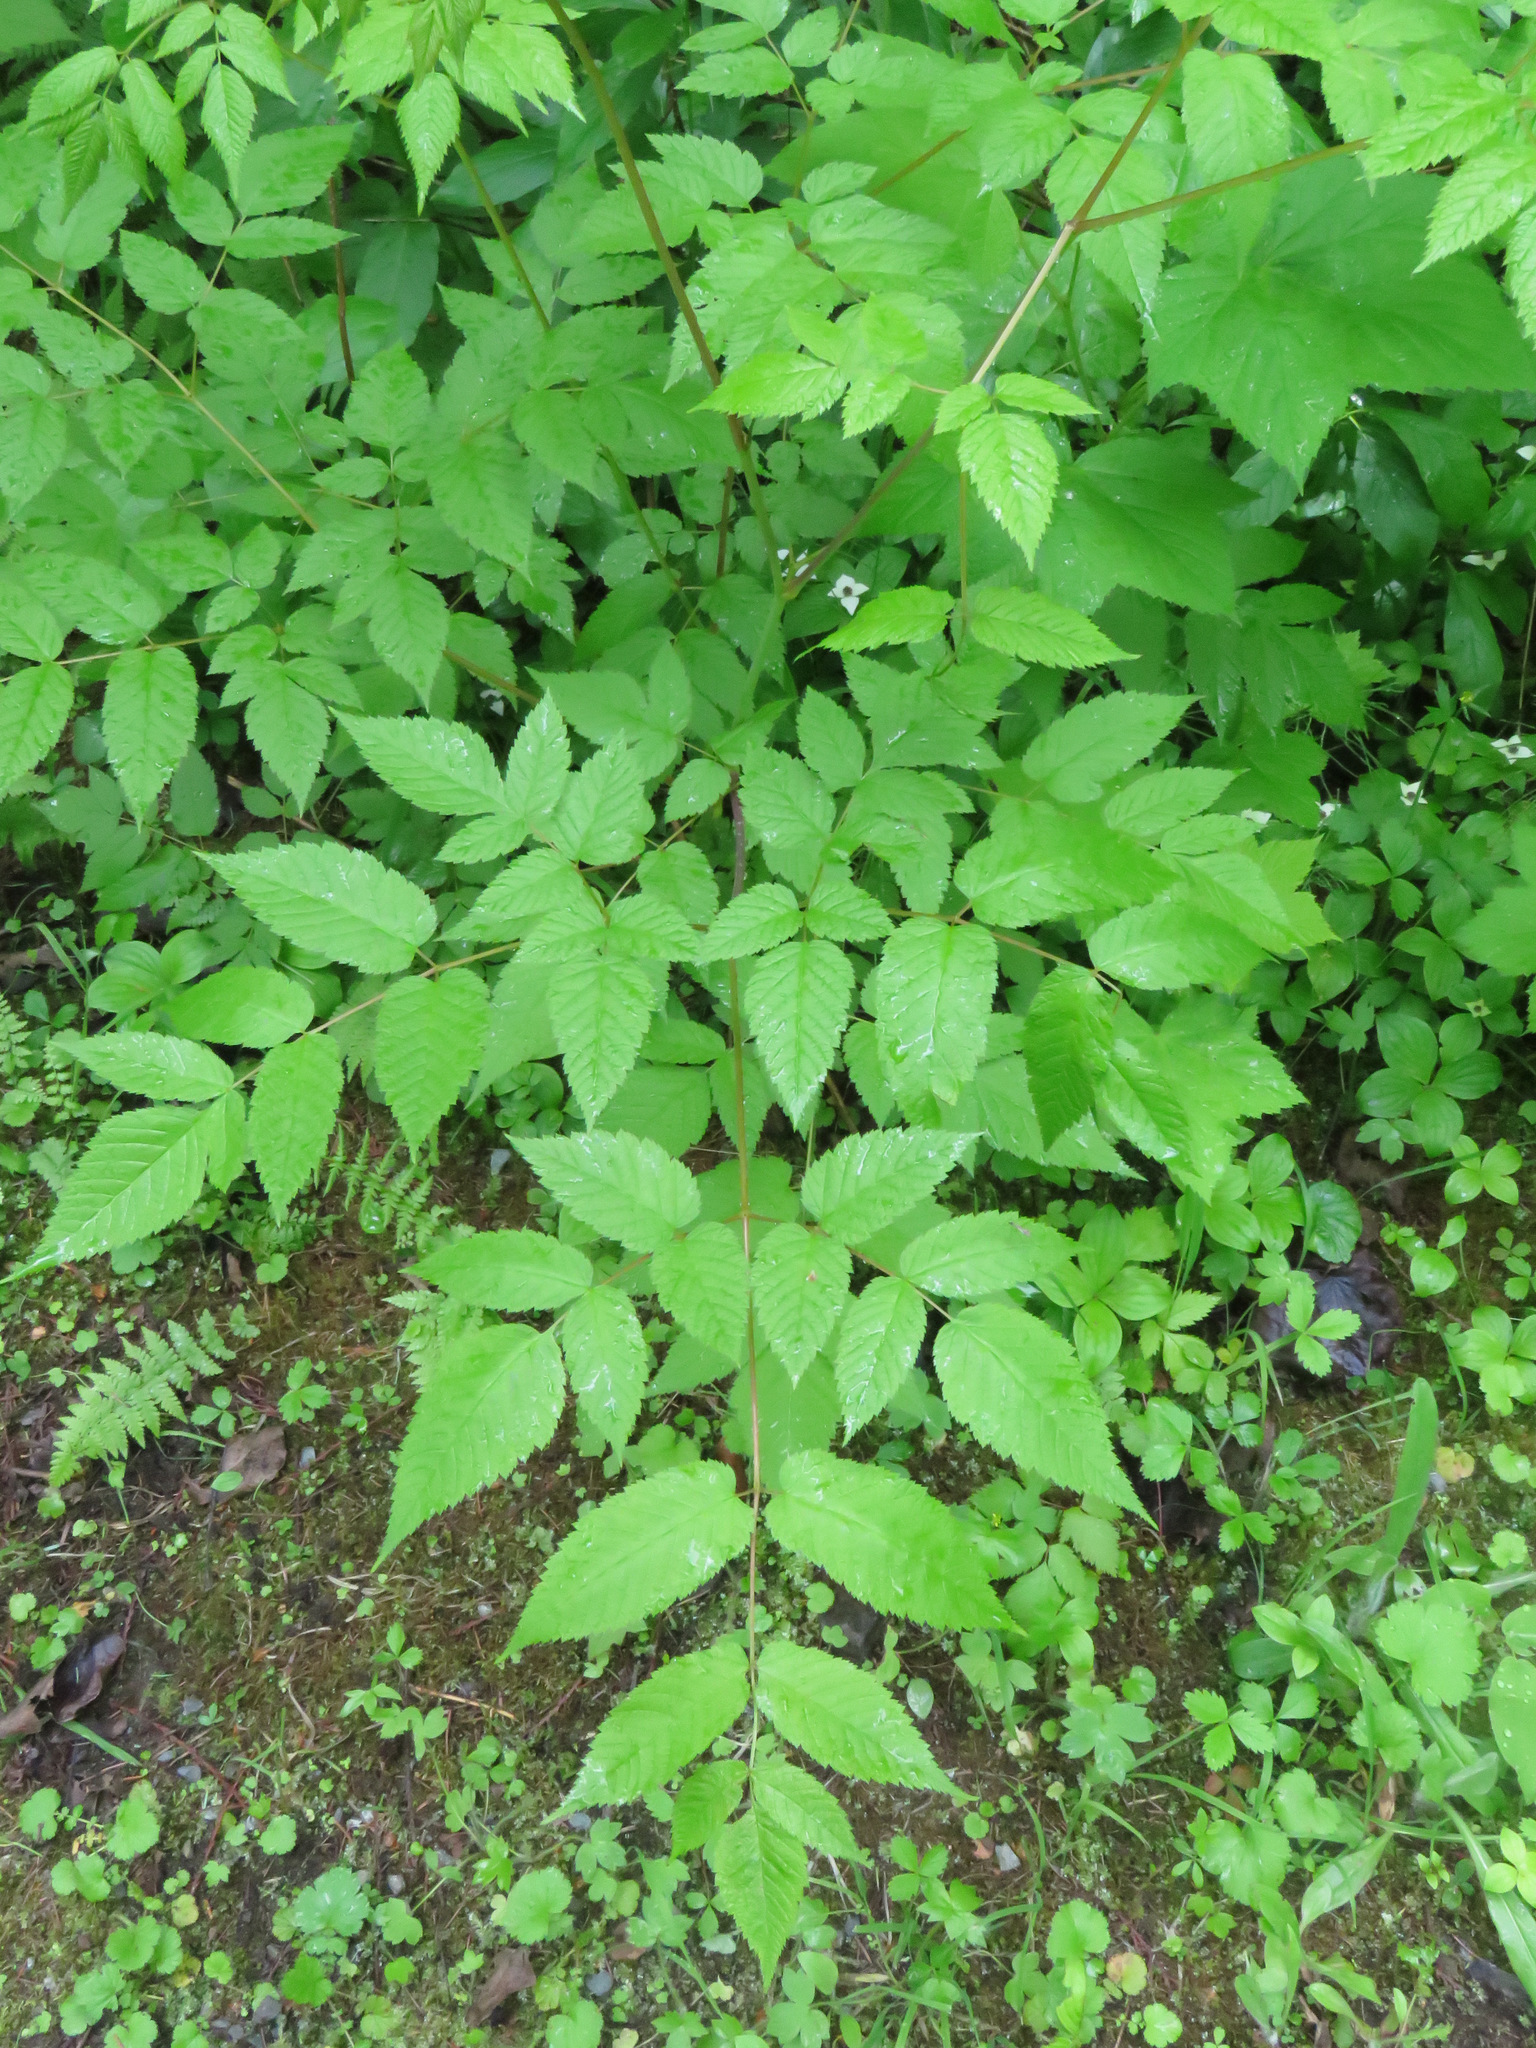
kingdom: Plantae
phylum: Tracheophyta
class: Magnoliopsida
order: Rosales
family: Rosaceae
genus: Aruncus
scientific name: Aruncus dioicus
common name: Buck's-beard
